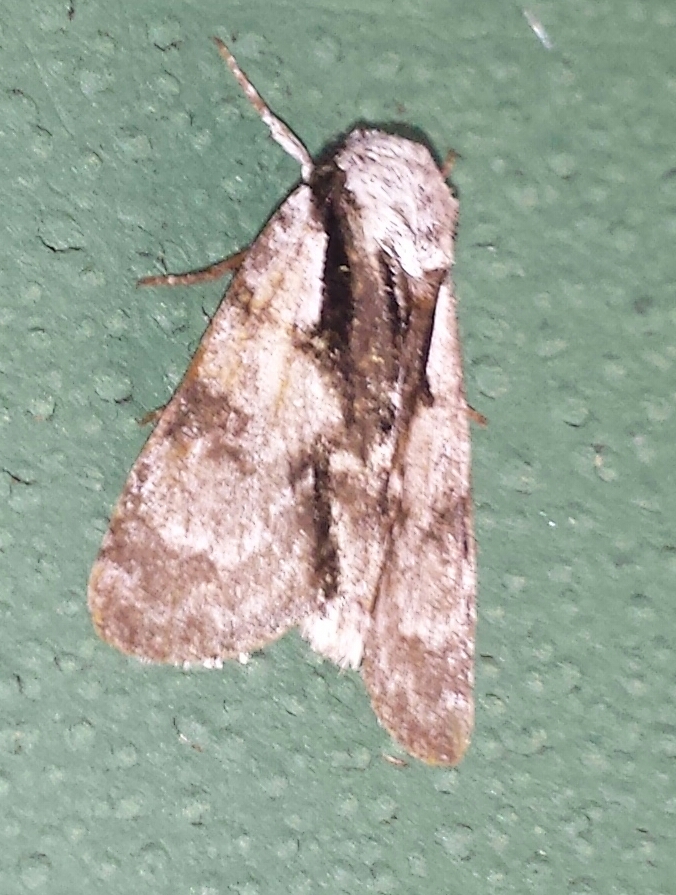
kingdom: Animalia
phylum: Arthropoda
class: Insecta
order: Lepidoptera
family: Noctuidae
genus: Acronicta
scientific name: Acronicta funeralis
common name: Funerary dagger
